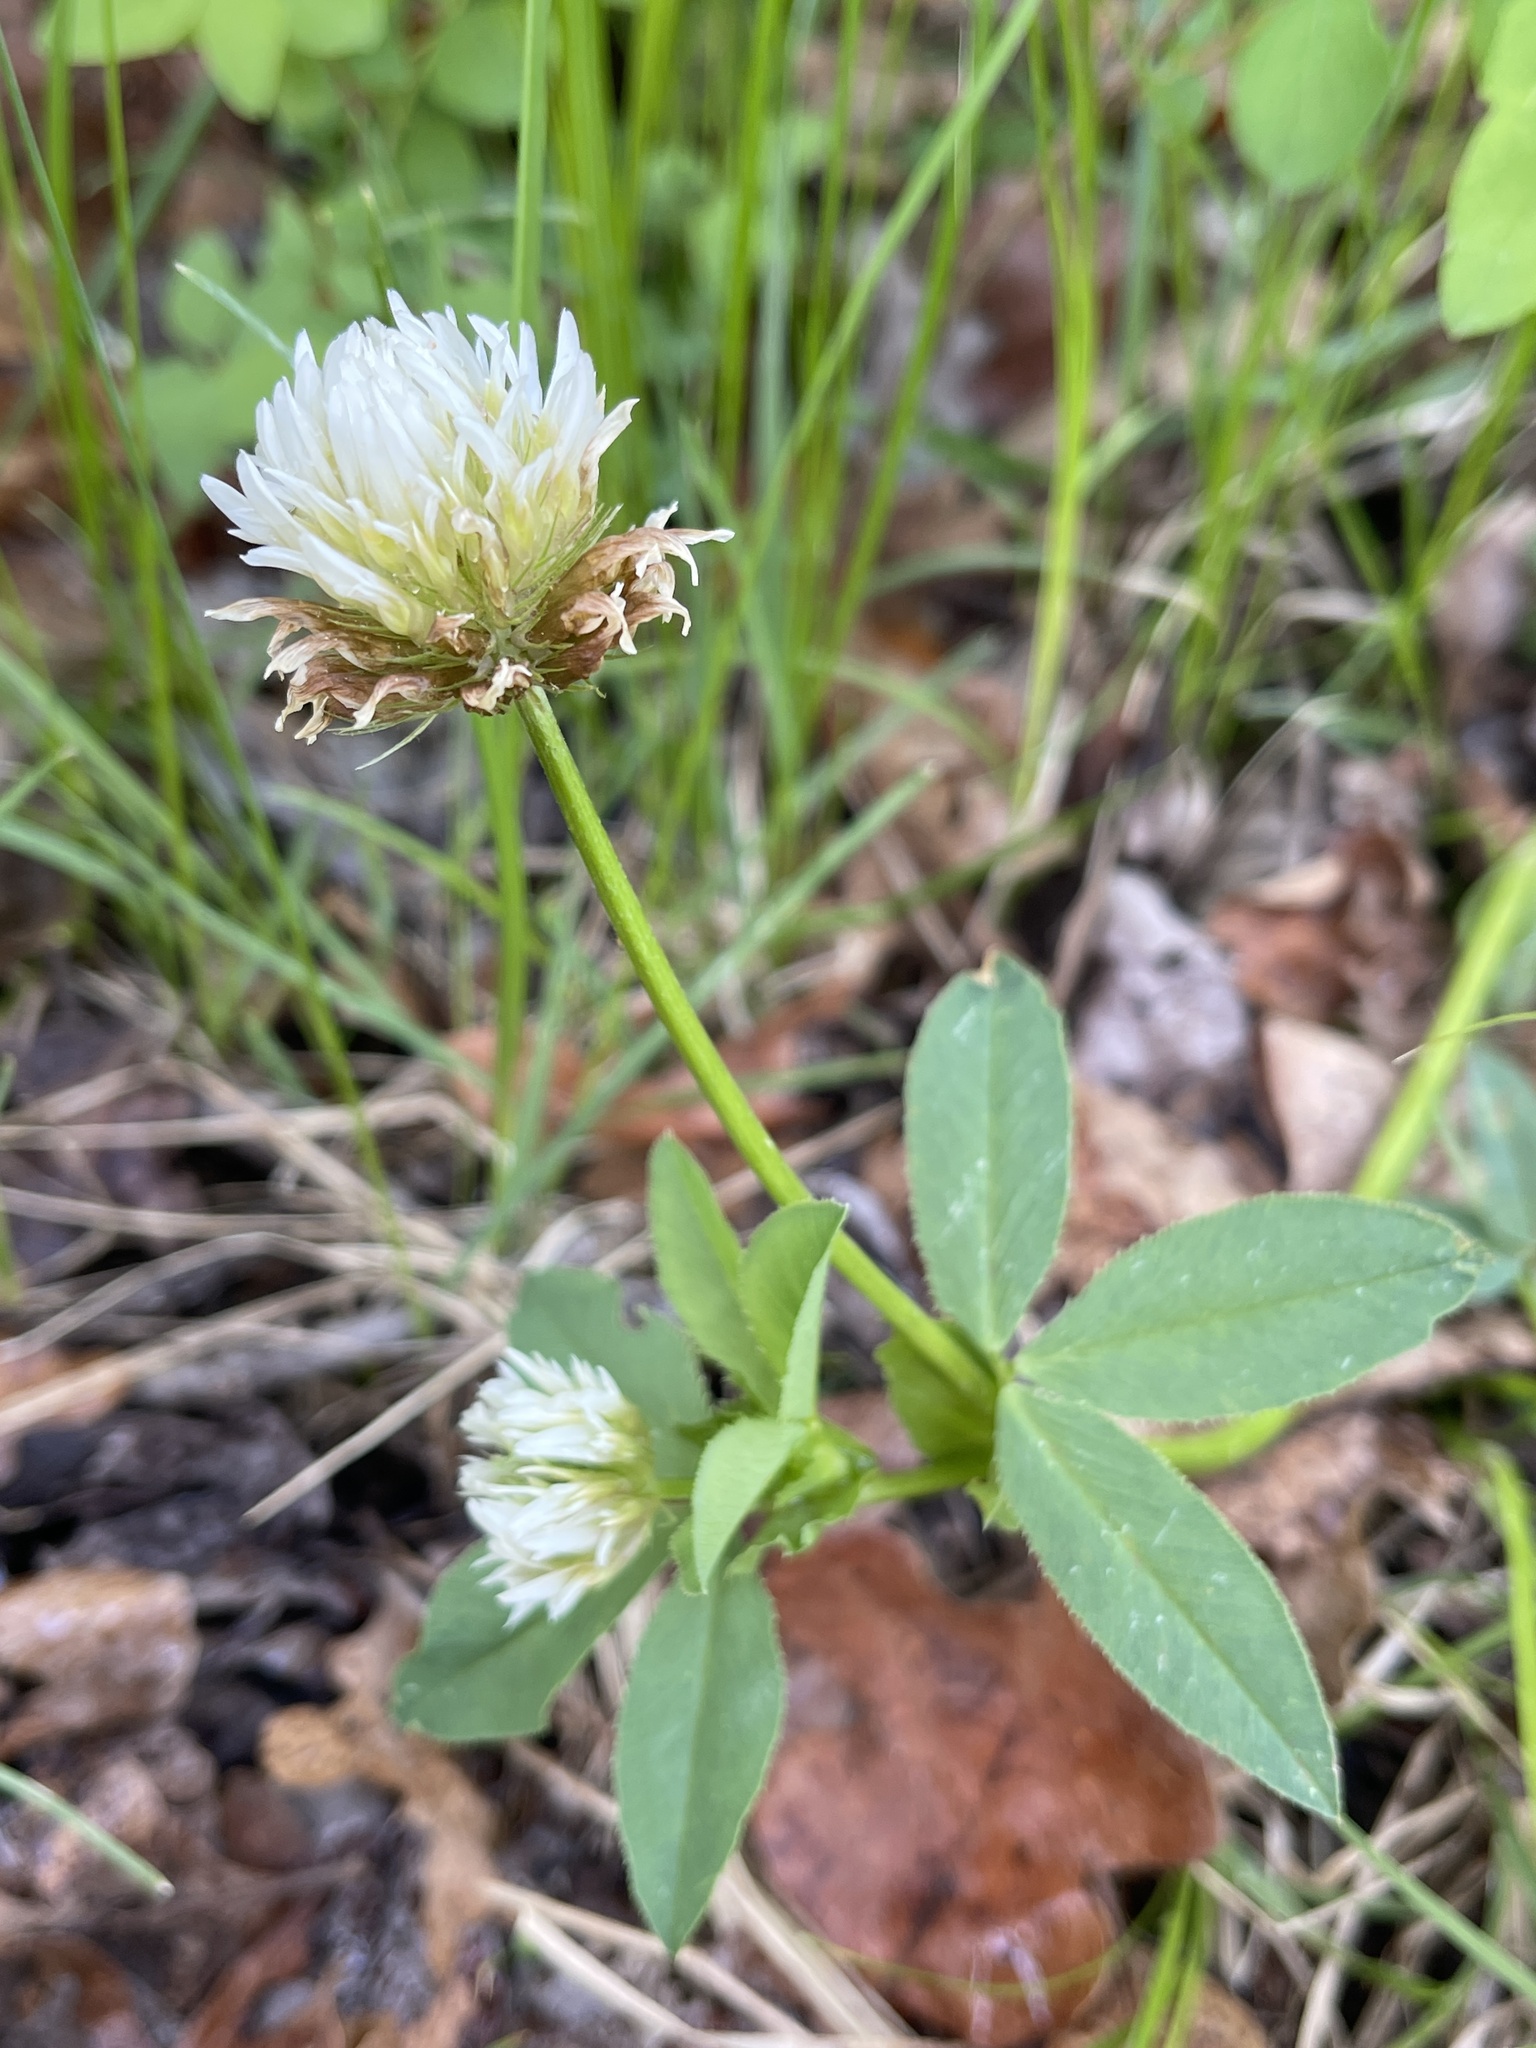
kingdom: Plantae
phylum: Tracheophyta
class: Magnoliopsida
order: Fabales
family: Fabaceae
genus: Trifolium
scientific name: Trifolium longipes
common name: Long-stalk clover
